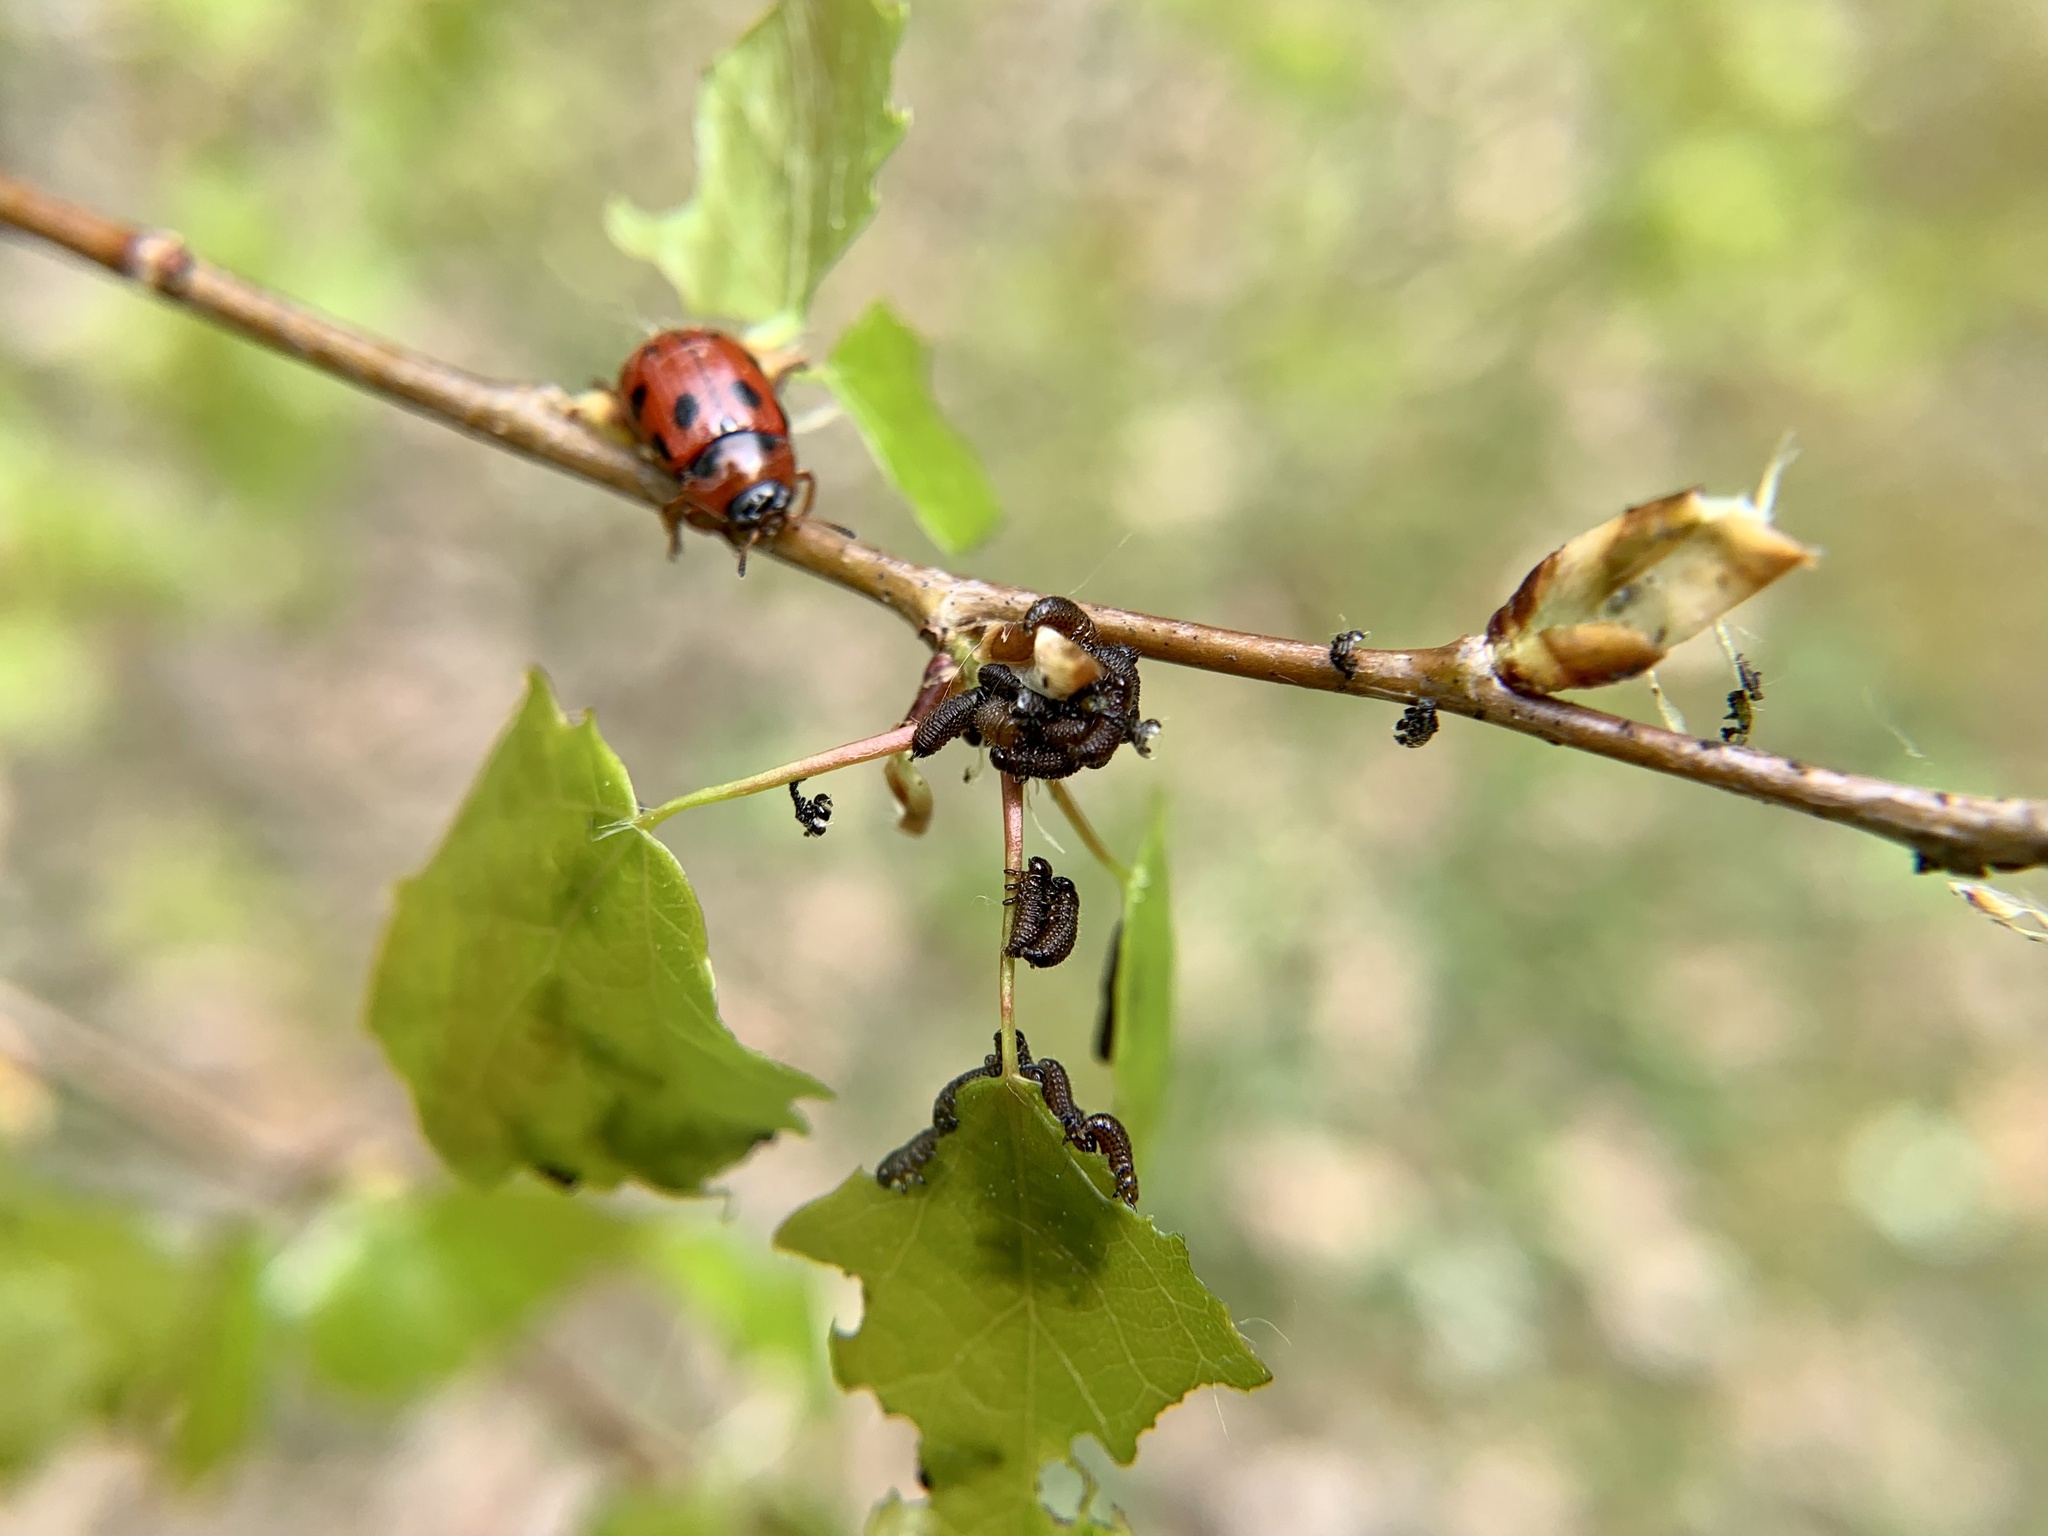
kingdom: Animalia
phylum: Arthropoda
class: Insecta
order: Coleoptera
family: Chrysomelidae
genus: Gonioctena
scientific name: Gonioctena decemnotata
